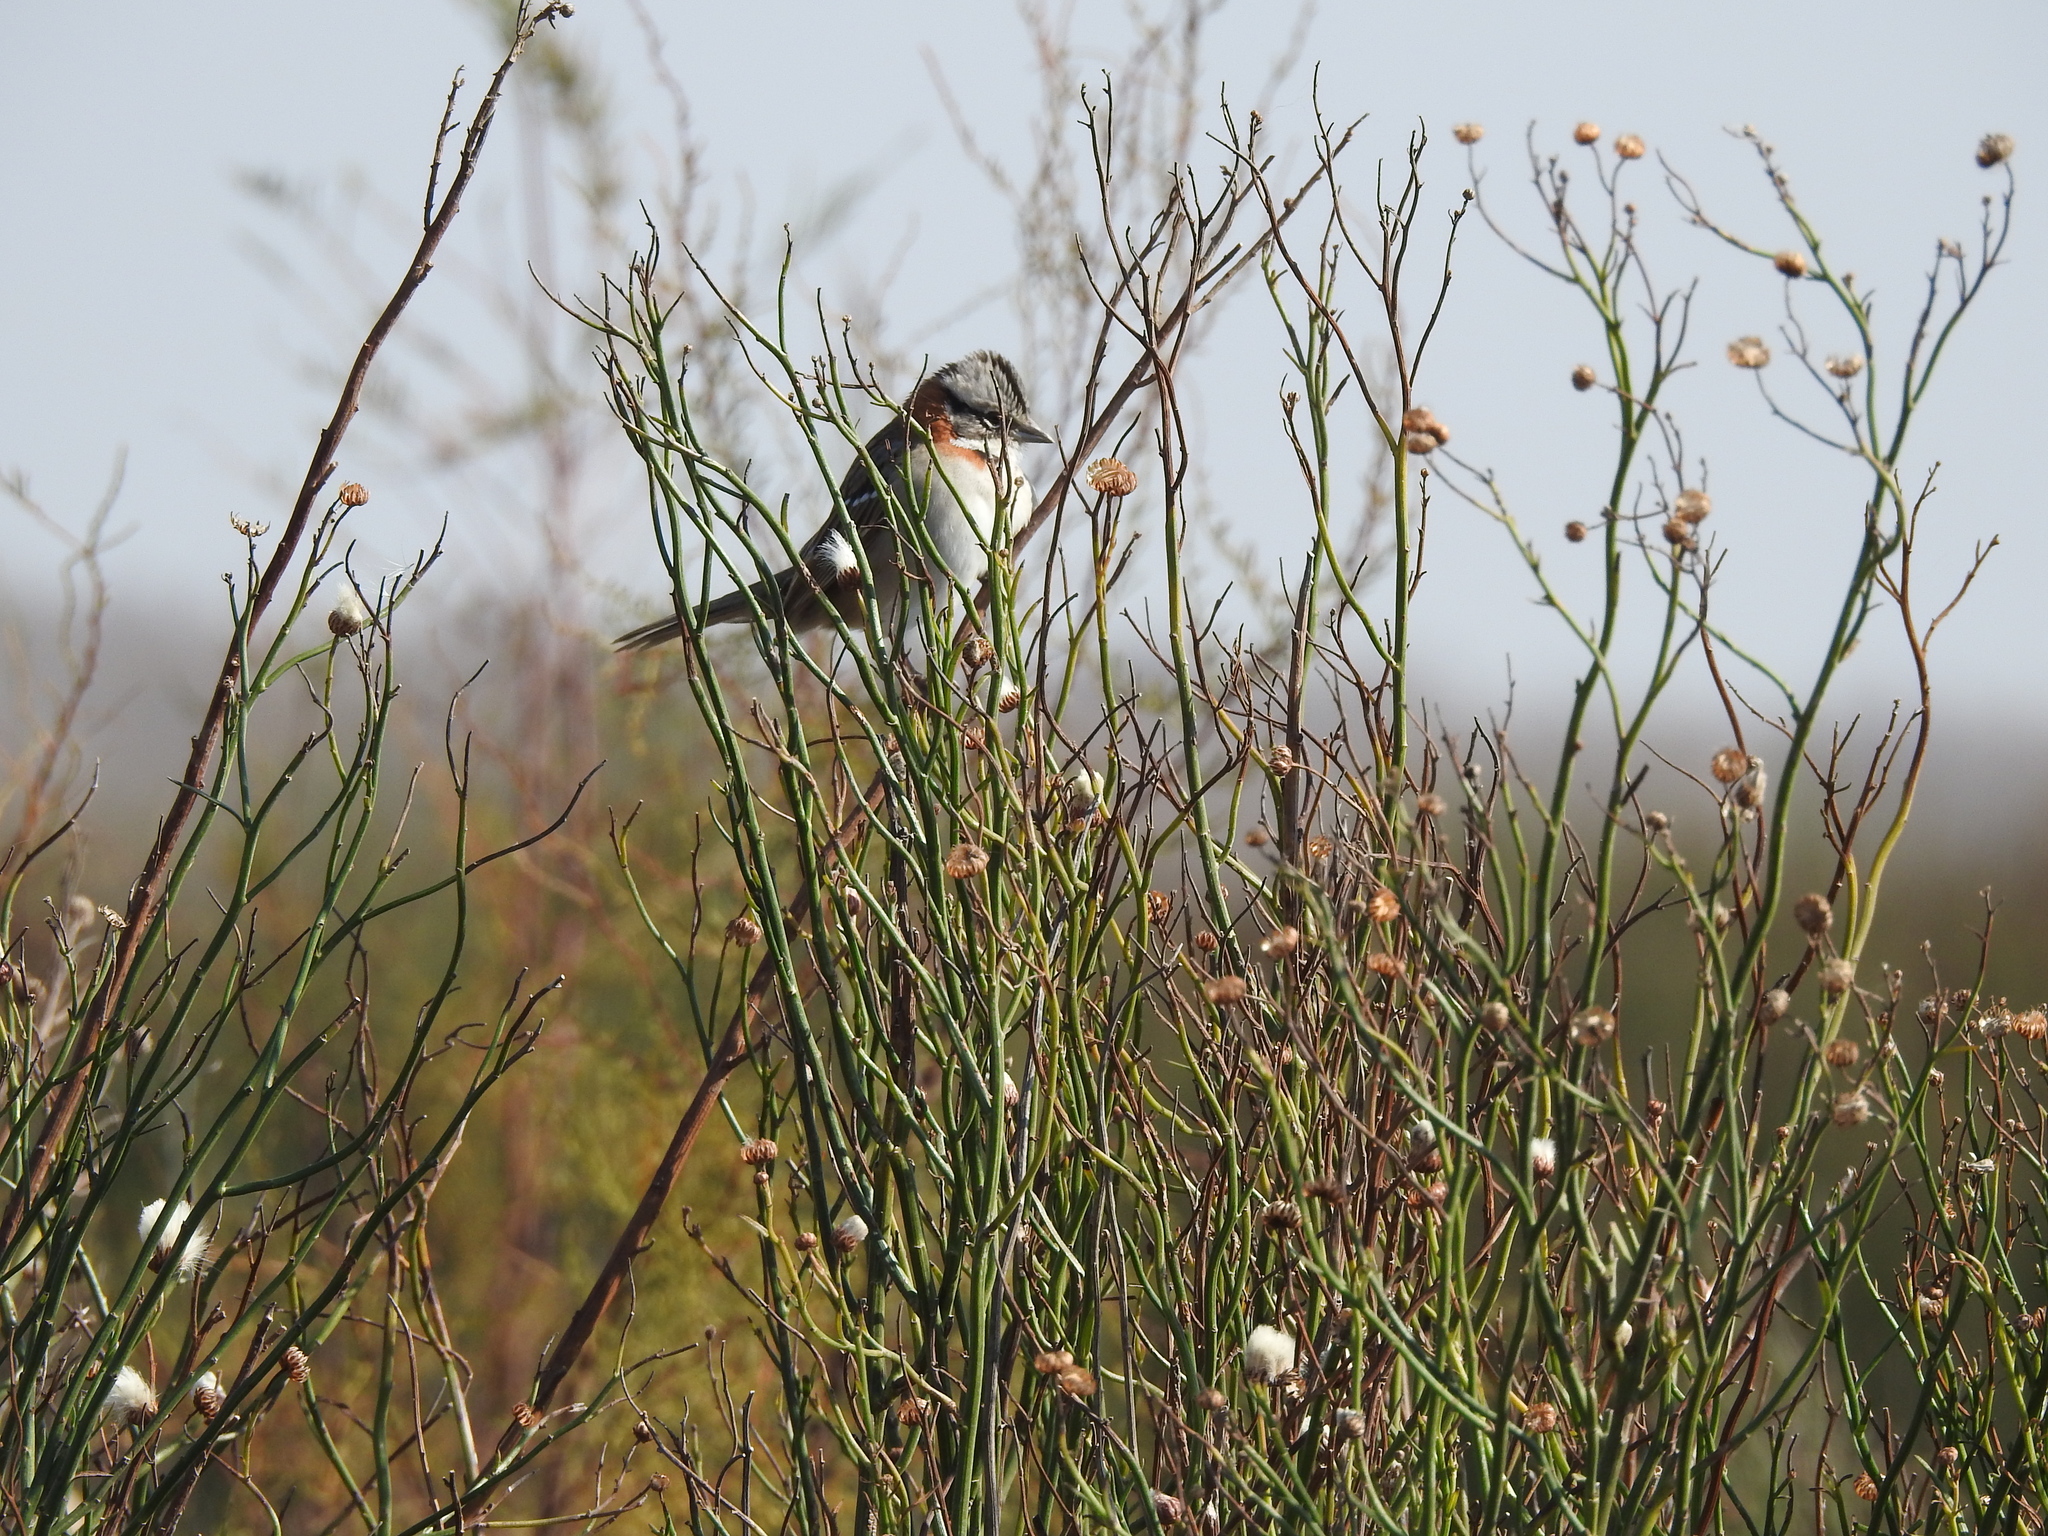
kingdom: Animalia
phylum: Chordata
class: Aves
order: Passeriformes
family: Passerellidae
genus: Zonotrichia
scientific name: Zonotrichia capensis
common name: Rufous-collared sparrow
